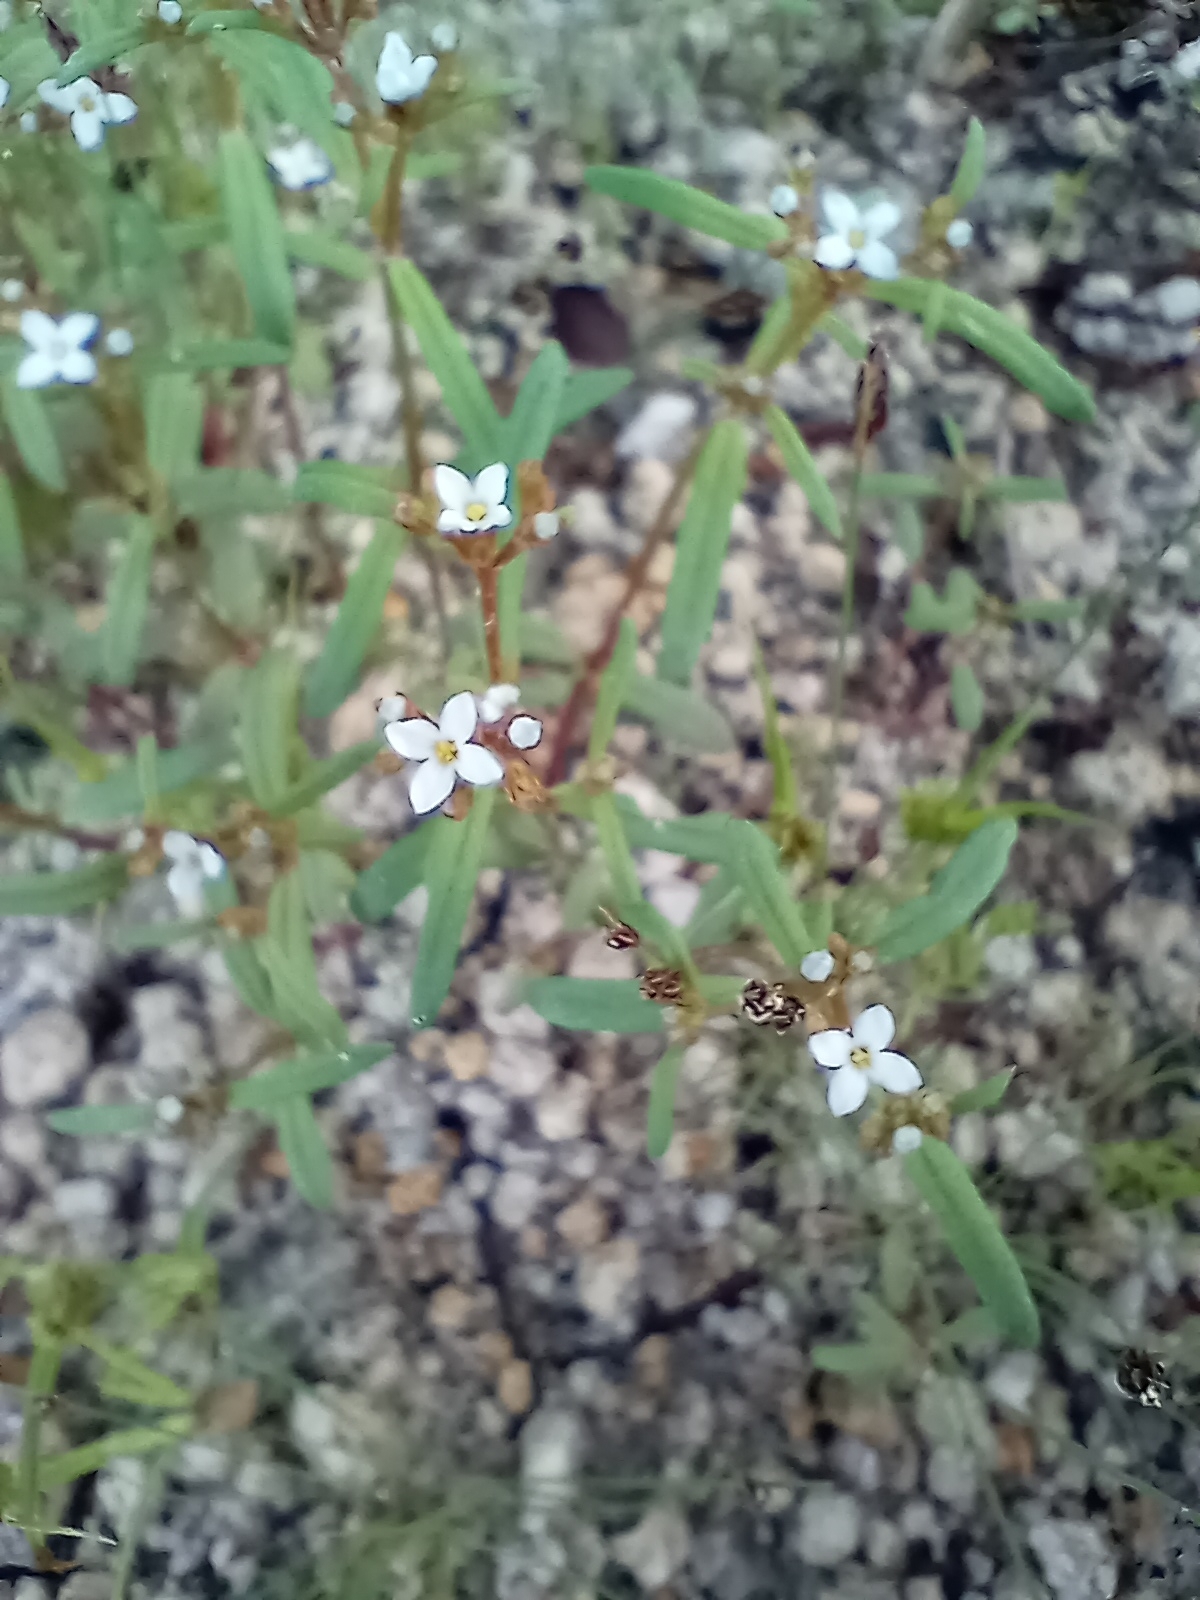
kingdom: Plantae
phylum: Tracheophyta
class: Magnoliopsida
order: Gentianales
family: Rubiaceae
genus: Stenotis
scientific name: Stenotis greenei
